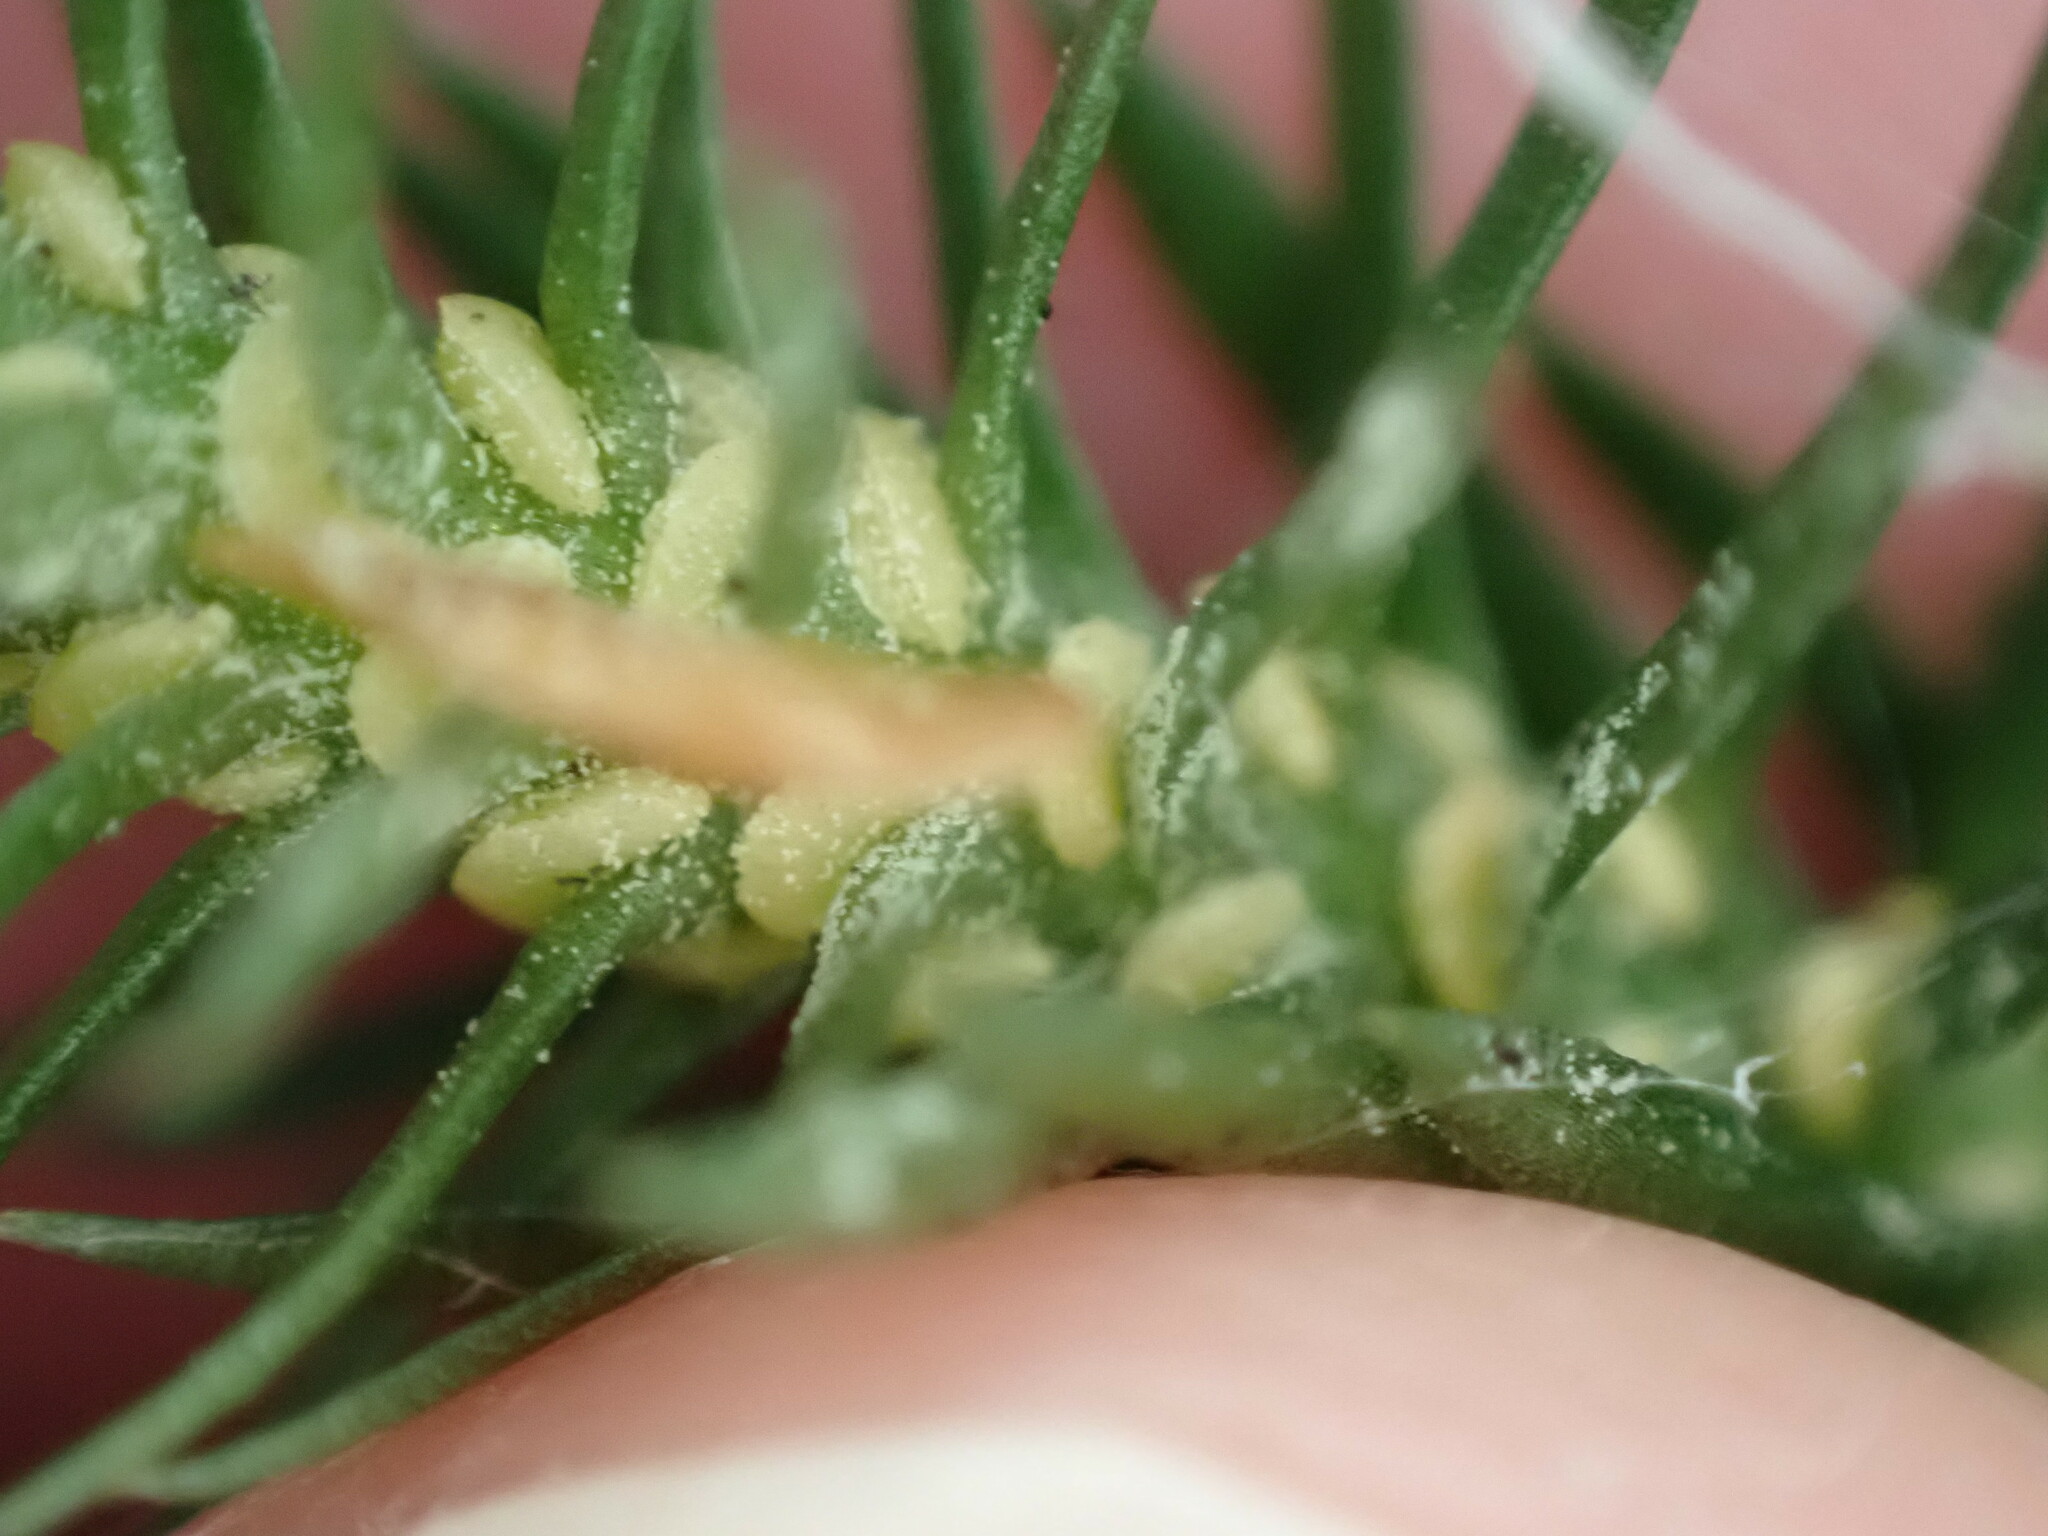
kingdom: Plantae
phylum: Tracheophyta
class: Lycopodiopsida
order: Lycopodiales
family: Lycopodiaceae
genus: Huperzia
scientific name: Huperzia occidentalis
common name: Western clubmoss
